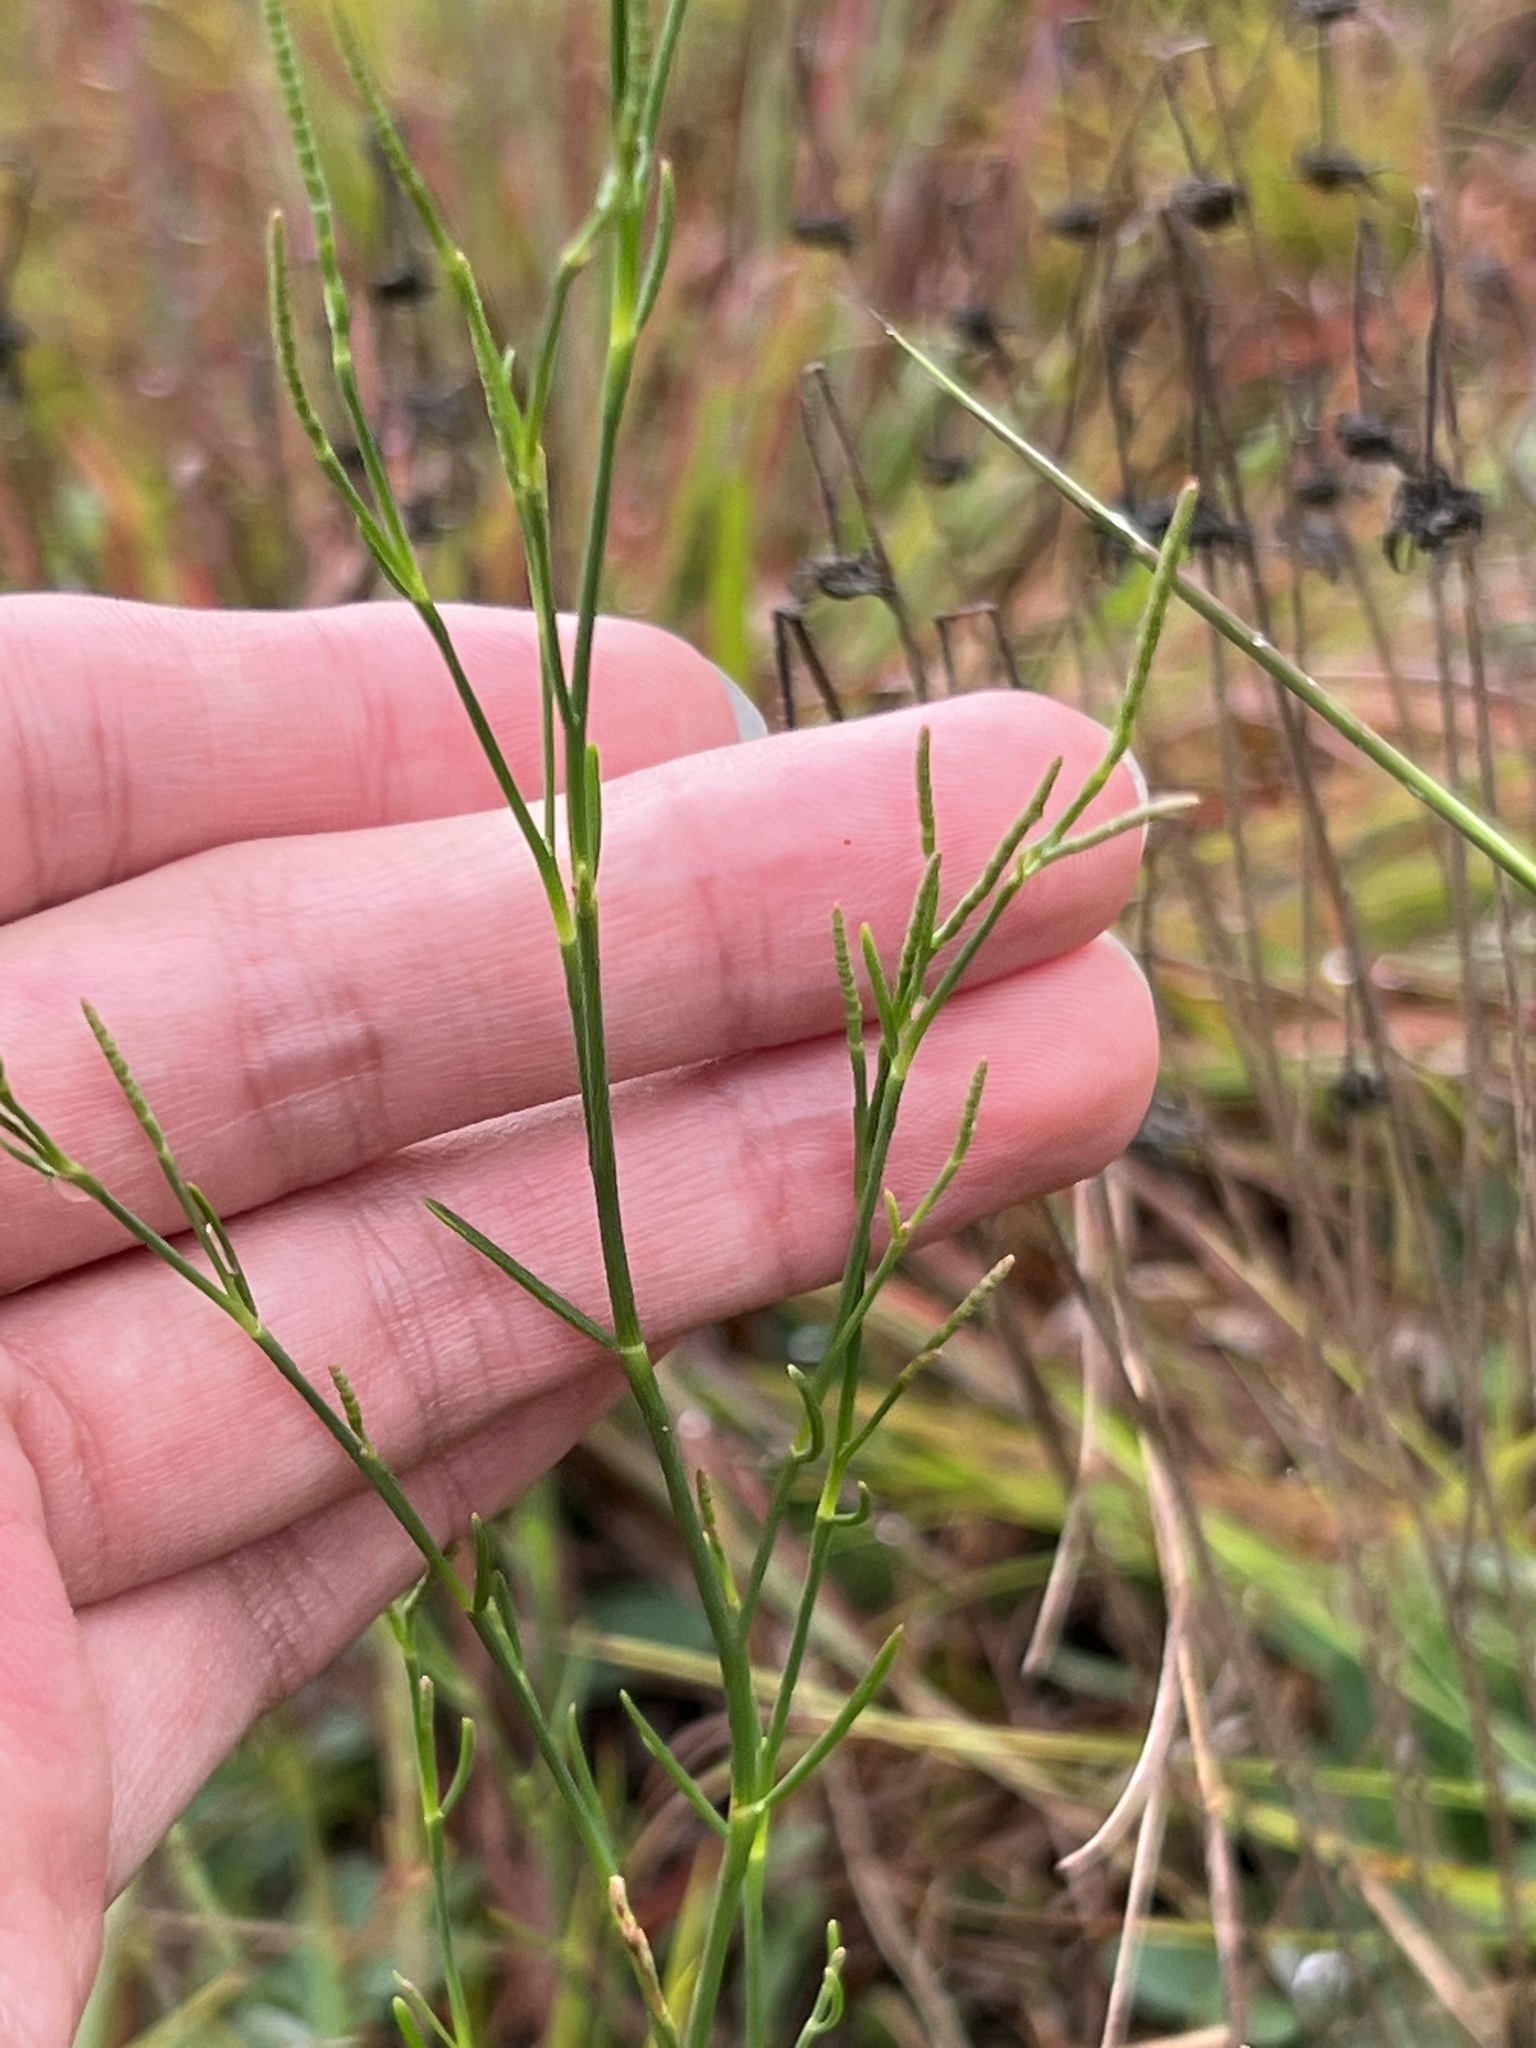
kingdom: Plantae
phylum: Tracheophyta
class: Magnoliopsida
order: Caryophyllales
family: Polygonaceae
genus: Polygonella
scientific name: Polygonella articulata
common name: Coastal jointweed
